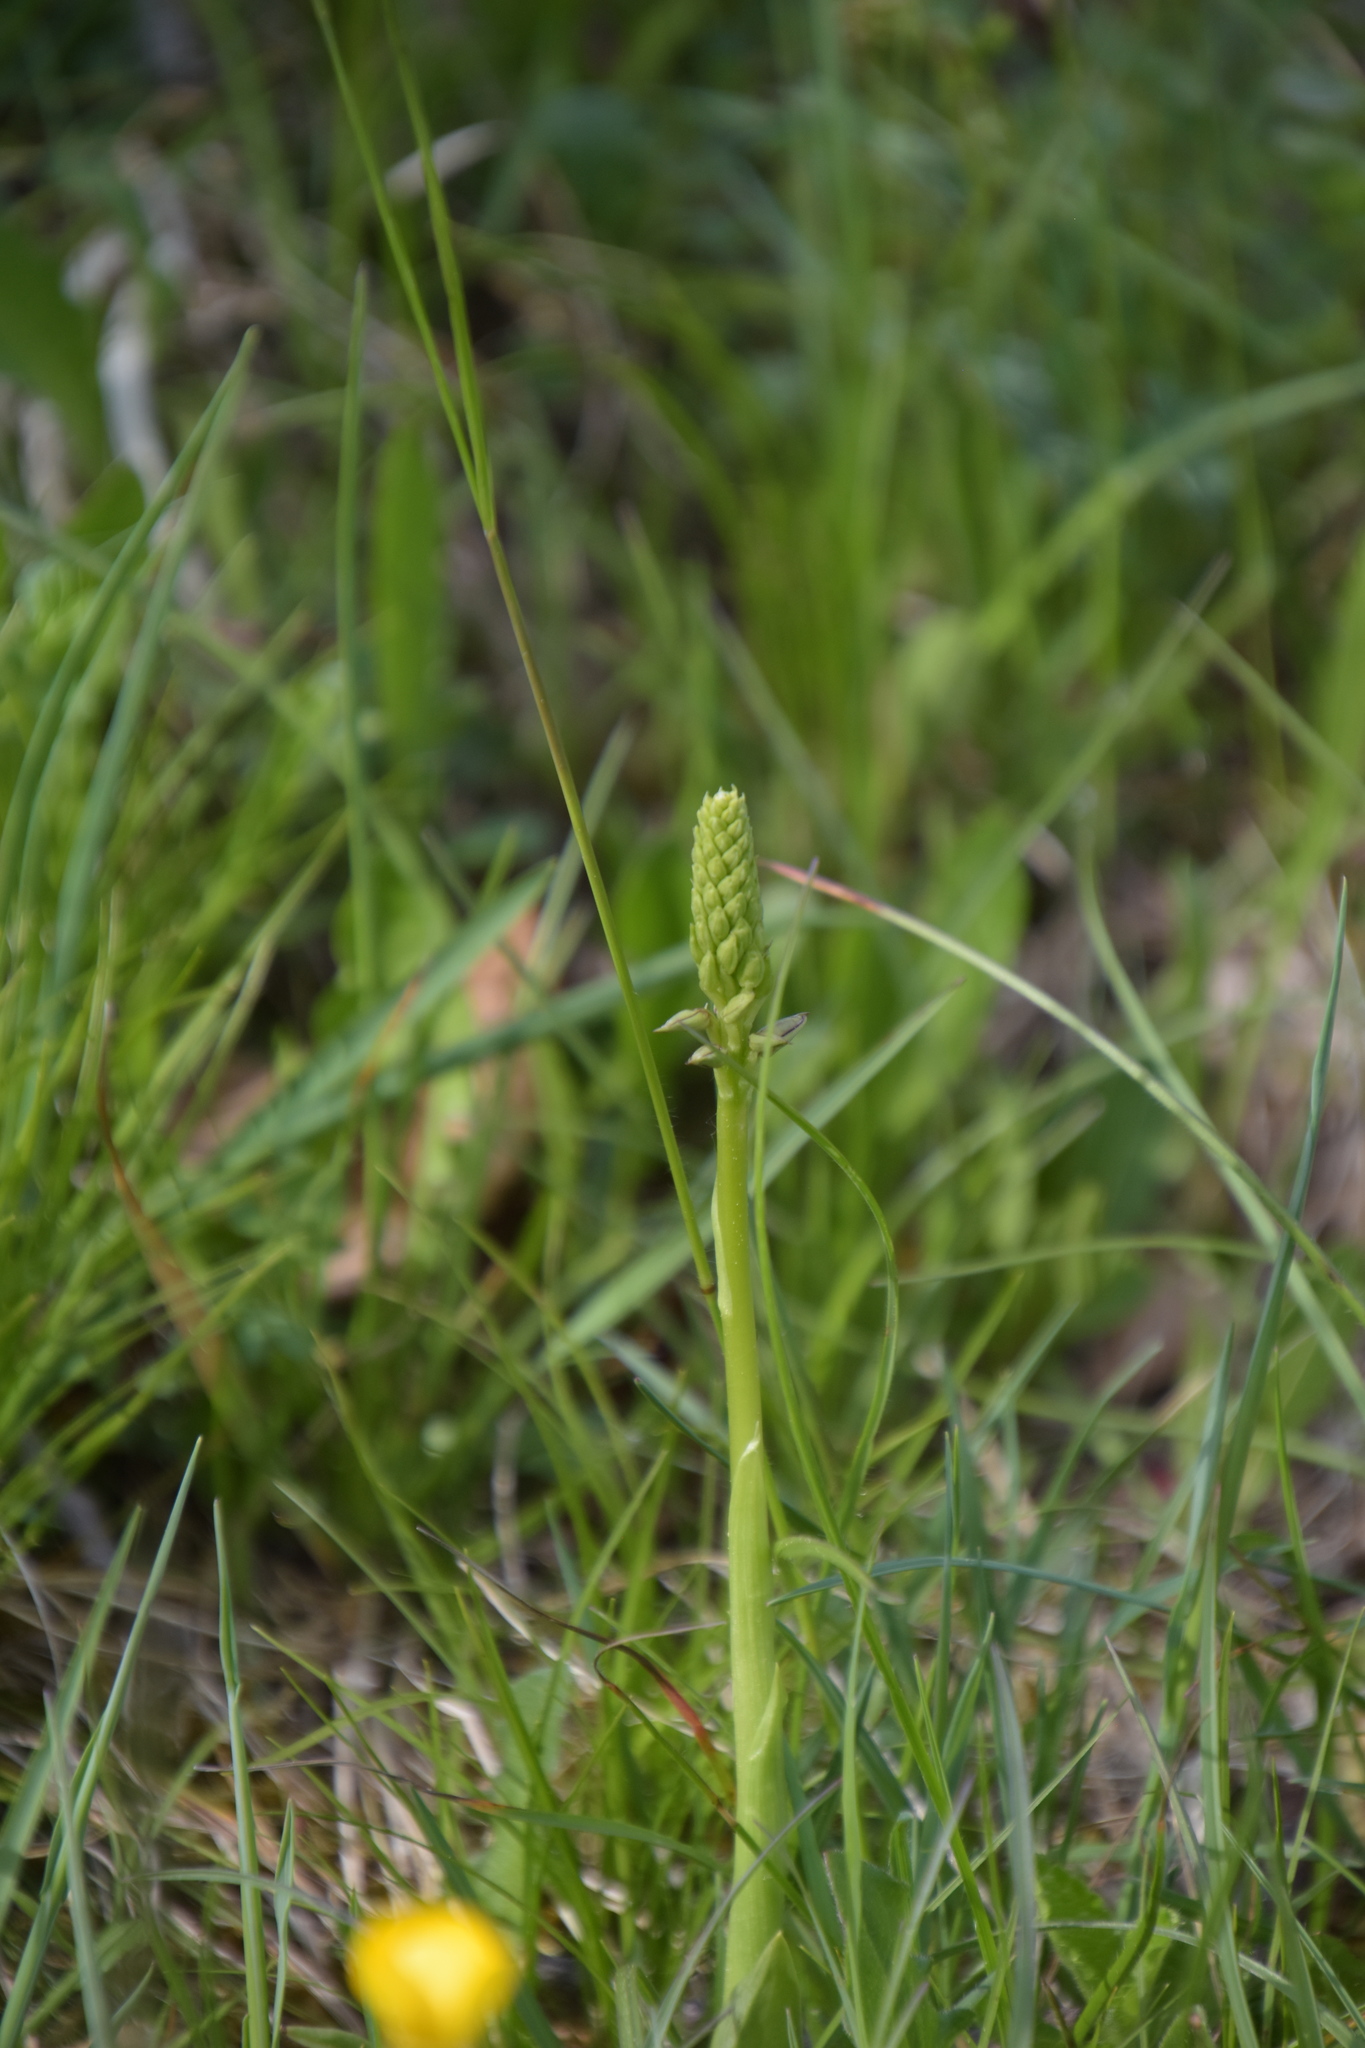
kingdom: Plantae
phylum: Tracheophyta
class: Liliopsida
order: Asparagales
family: Orchidaceae
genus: Orchis
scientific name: Orchis anthropophora
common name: Man orchid
